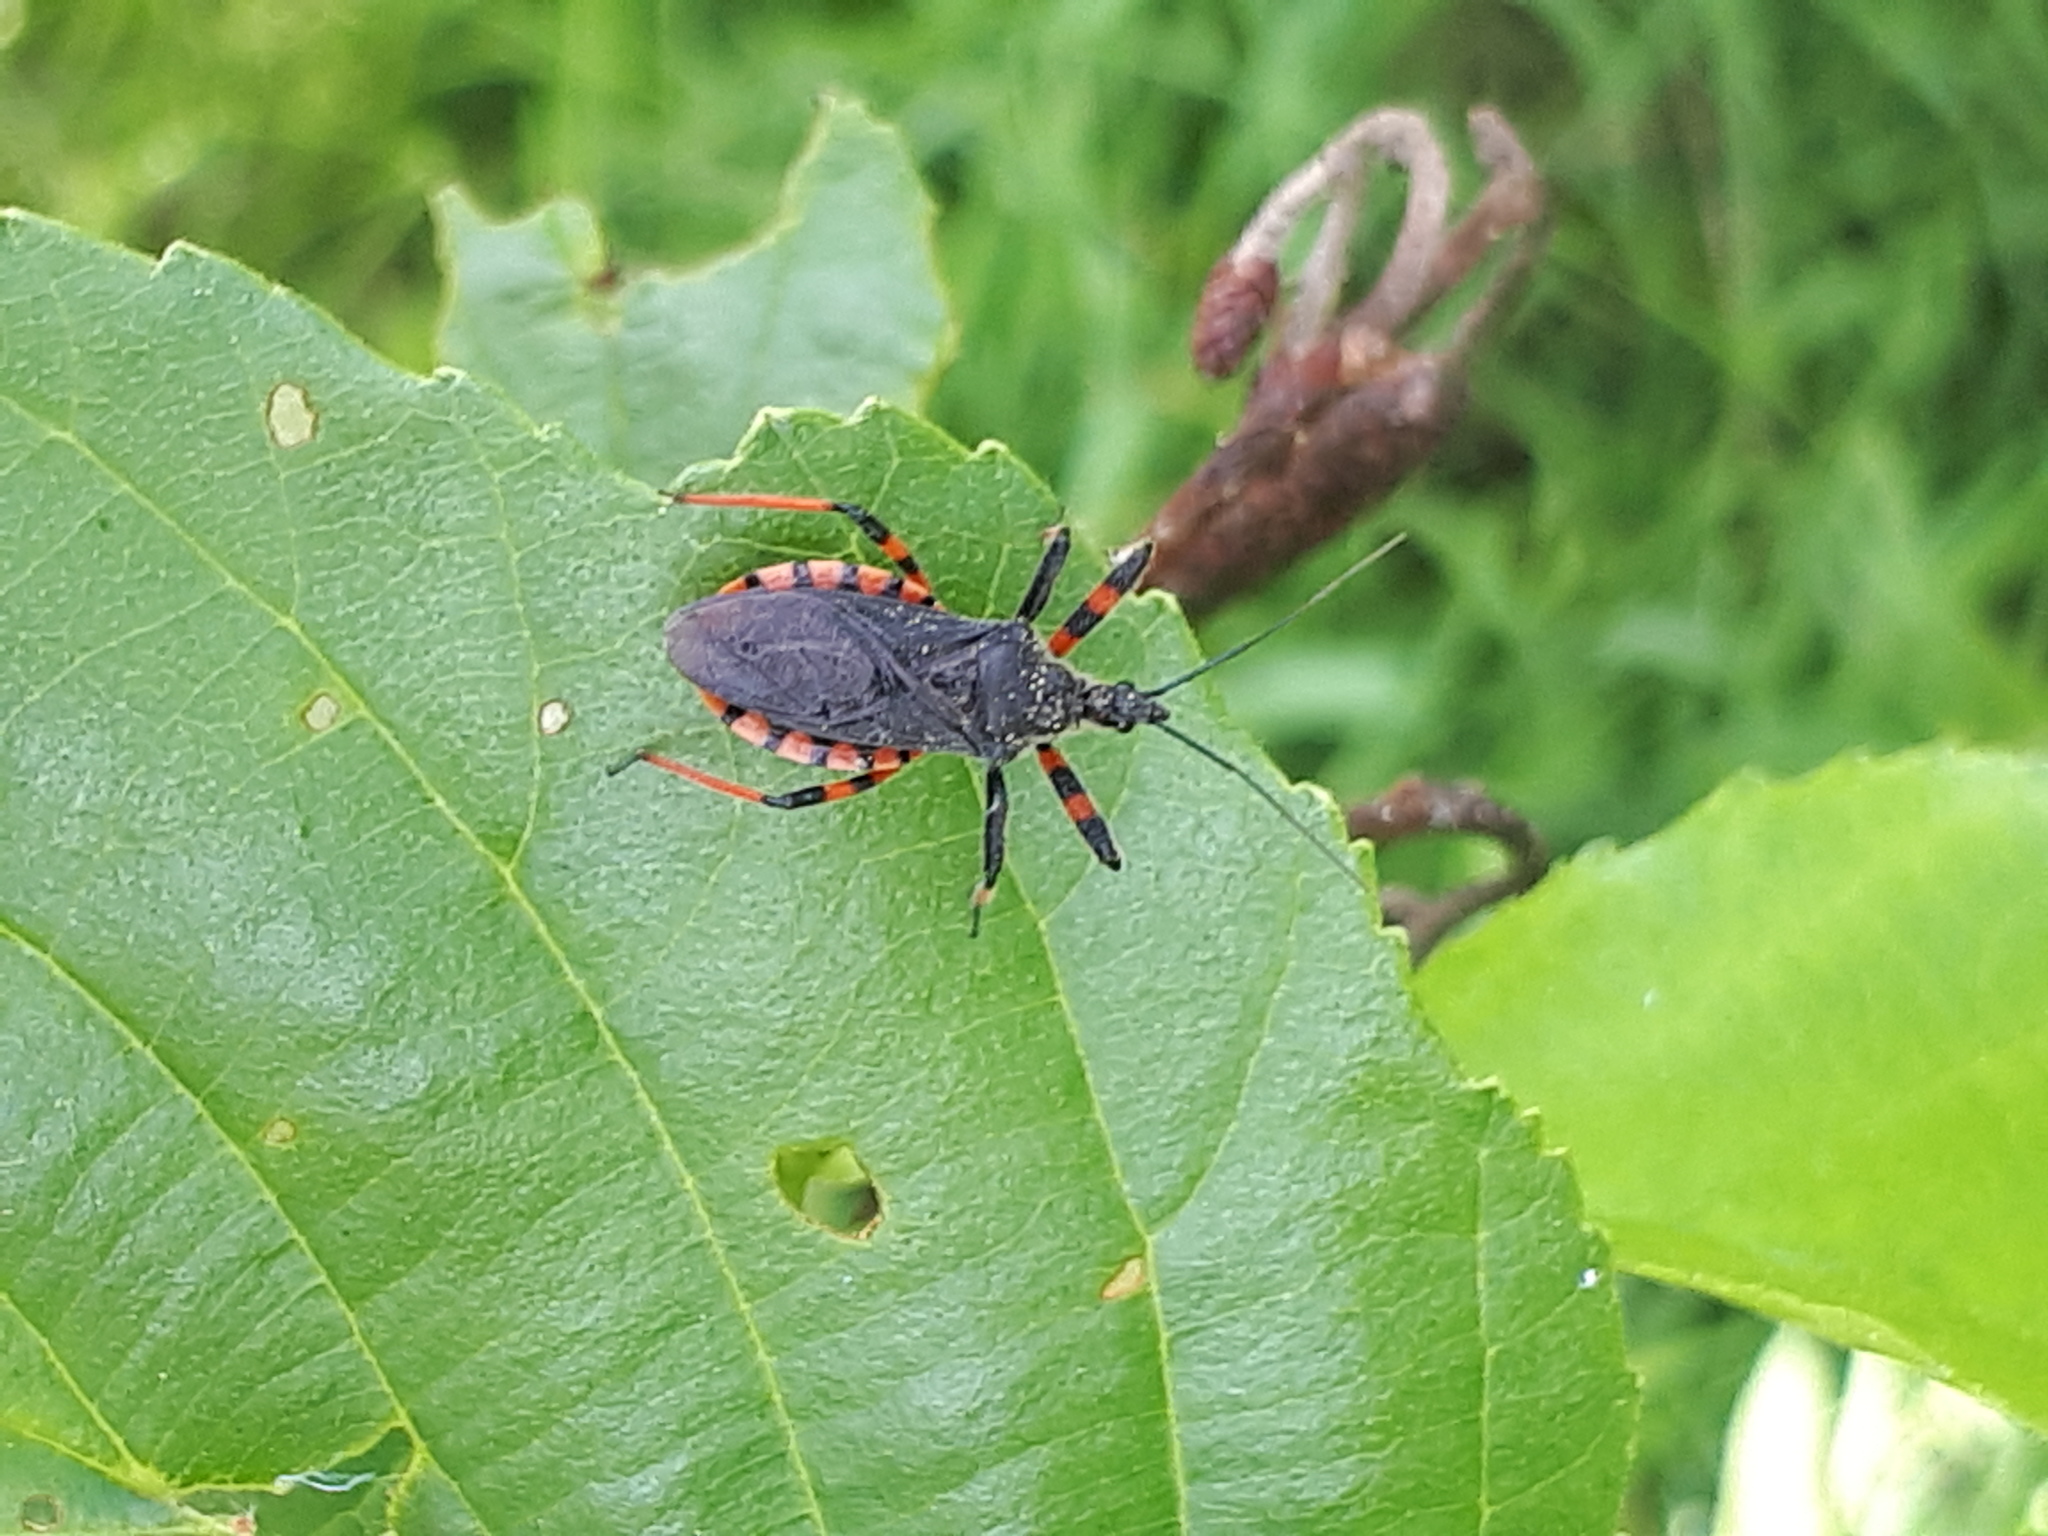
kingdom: Animalia
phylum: Arthropoda
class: Insecta
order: Hemiptera
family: Reduviidae
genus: Rhynocoris
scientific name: Rhynocoris annulatus
